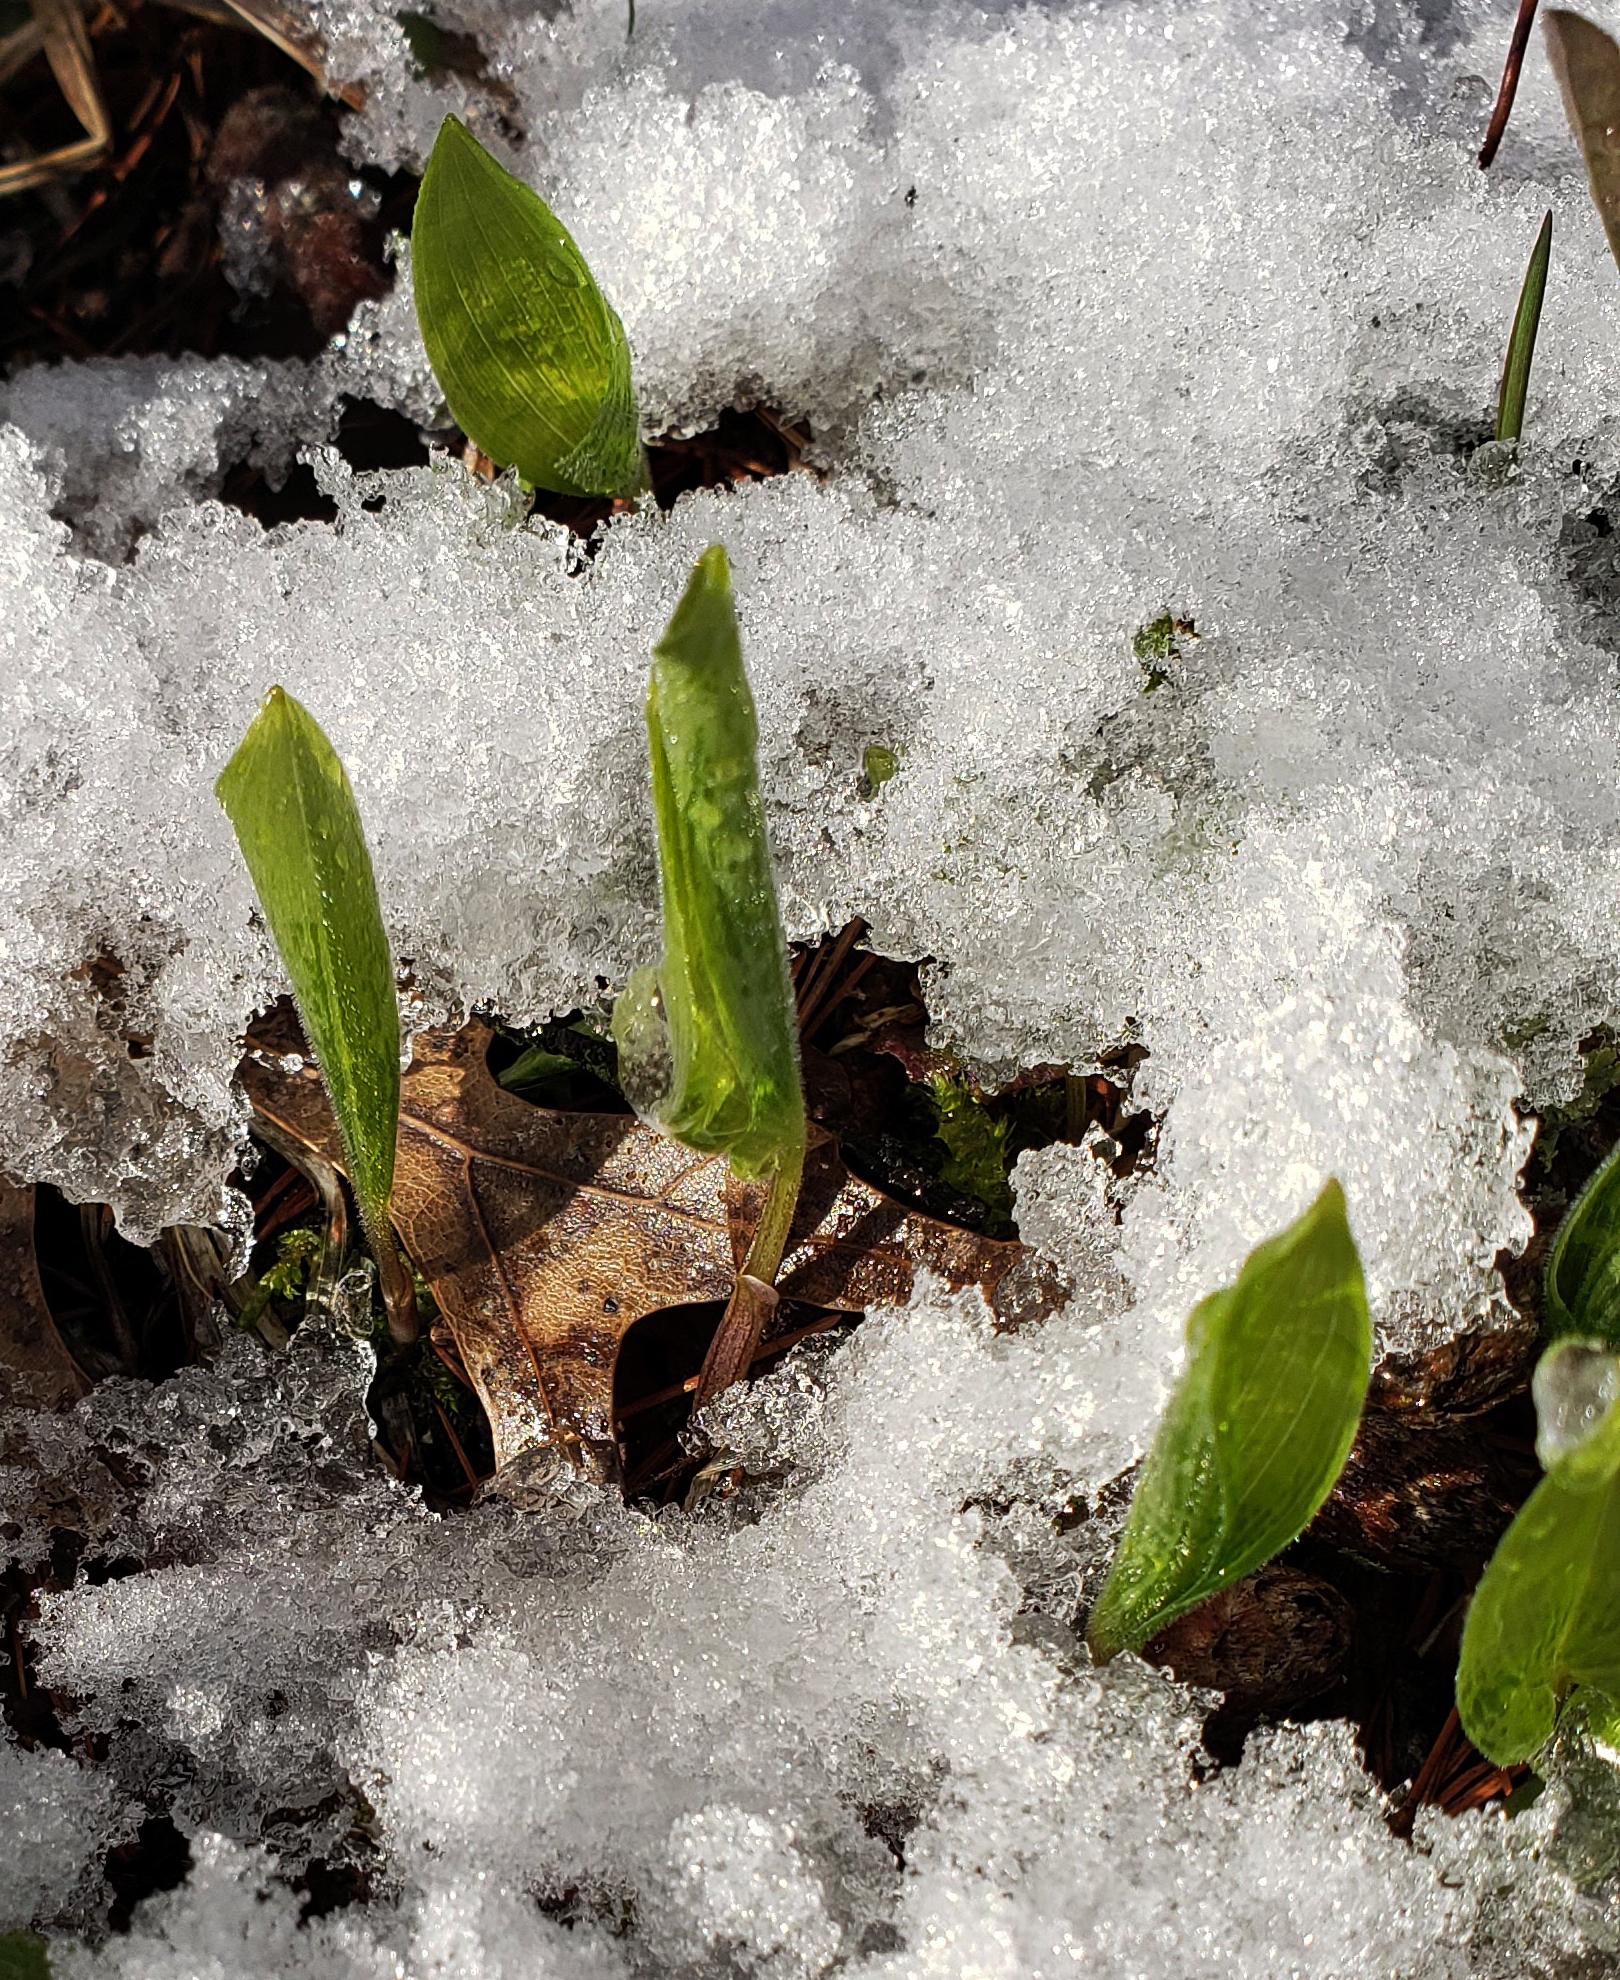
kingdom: Plantae
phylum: Tracheophyta
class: Liliopsida
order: Asparagales
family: Asparagaceae
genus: Maianthemum
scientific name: Maianthemum canadense
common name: False lily-of-the-valley
